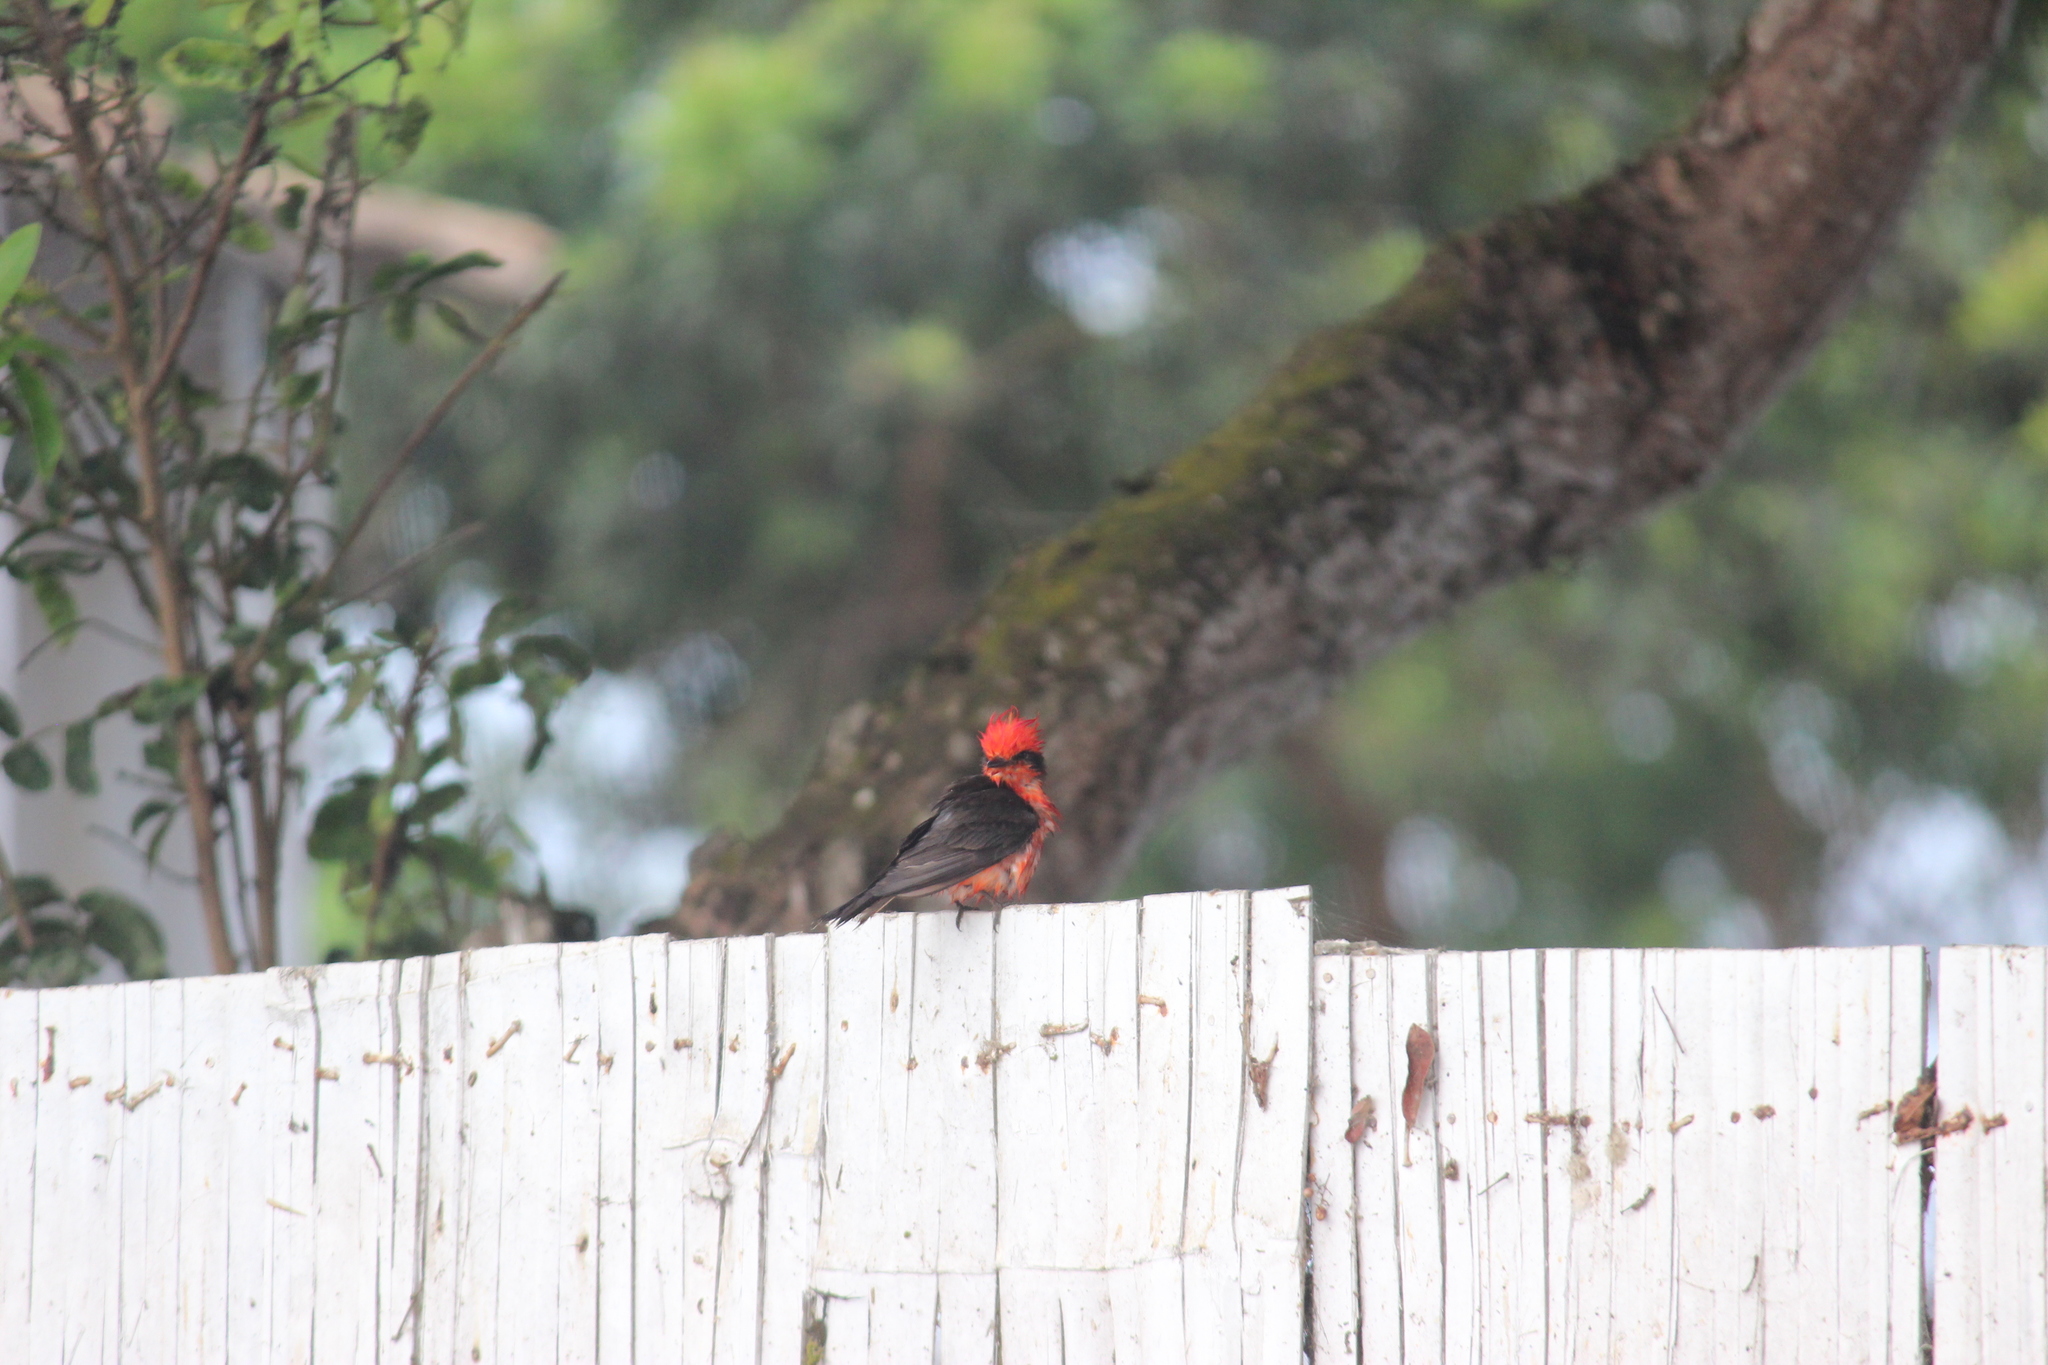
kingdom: Animalia
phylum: Chordata
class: Aves
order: Passeriformes
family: Tyrannidae
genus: Pyrocephalus
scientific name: Pyrocephalus rubinus
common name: Vermilion flycatcher
